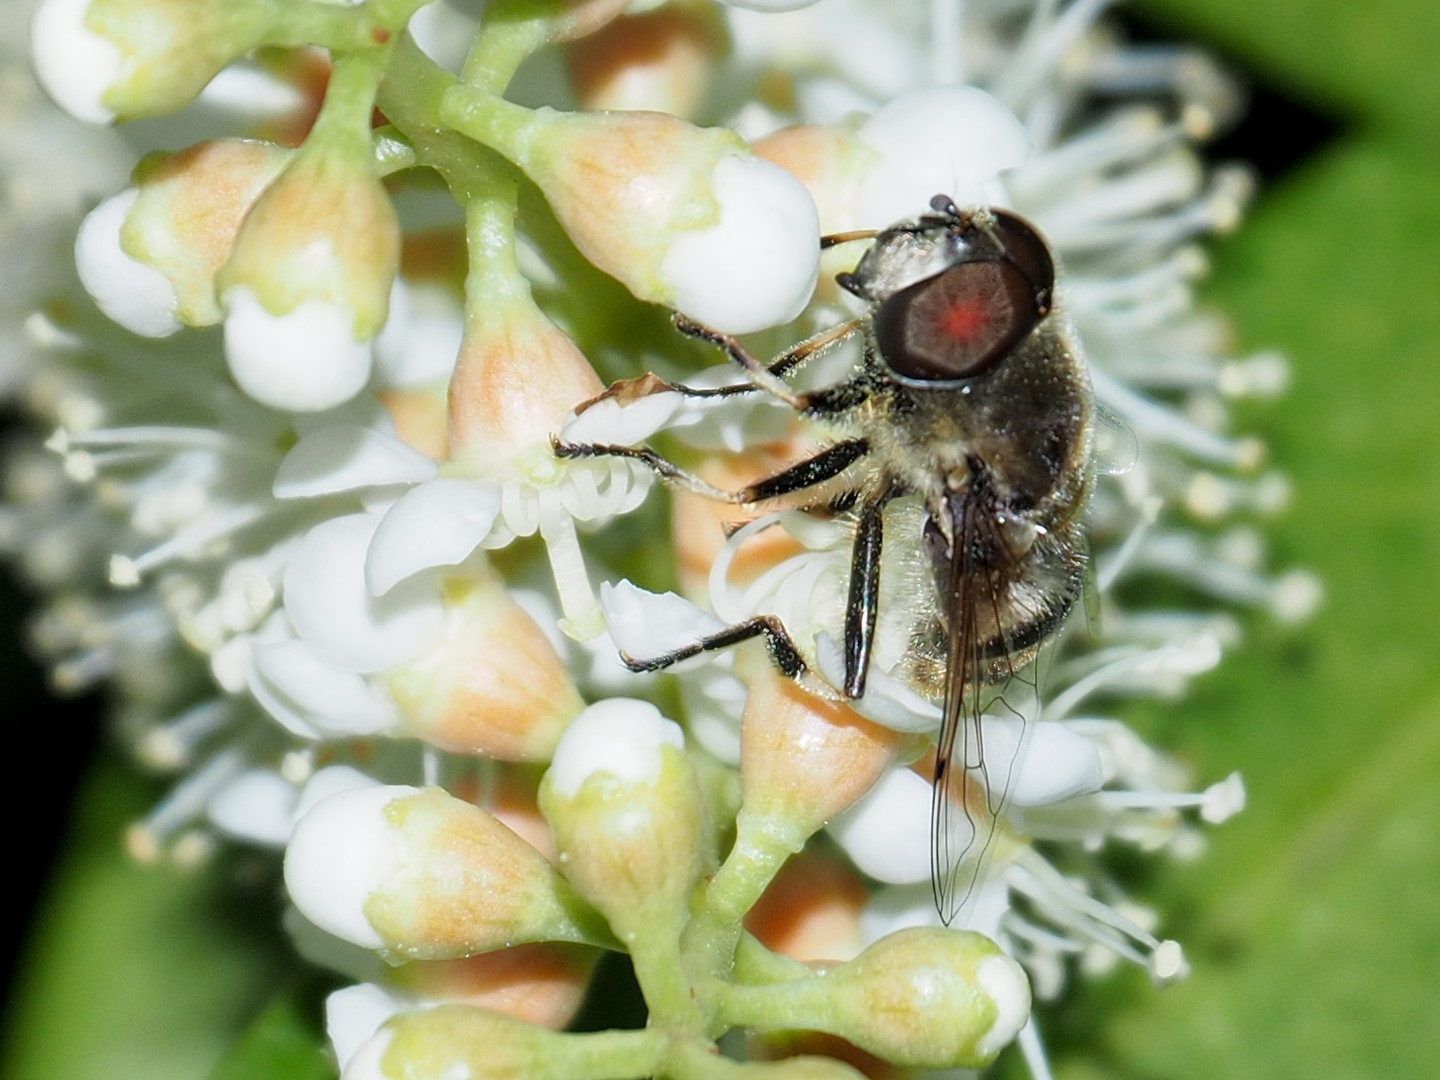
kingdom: Animalia
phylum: Arthropoda
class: Insecta
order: Diptera
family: Syrphidae
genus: Eristalis
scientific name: Eristalis dimidiata
